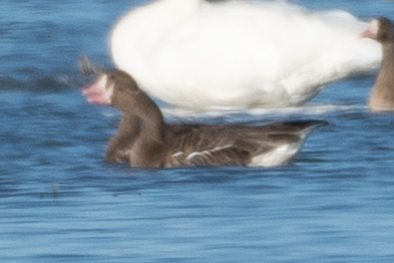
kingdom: Animalia
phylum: Chordata
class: Aves
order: Anseriformes
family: Anatidae
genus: Anser
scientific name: Anser albifrons
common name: Greater white-fronted goose
